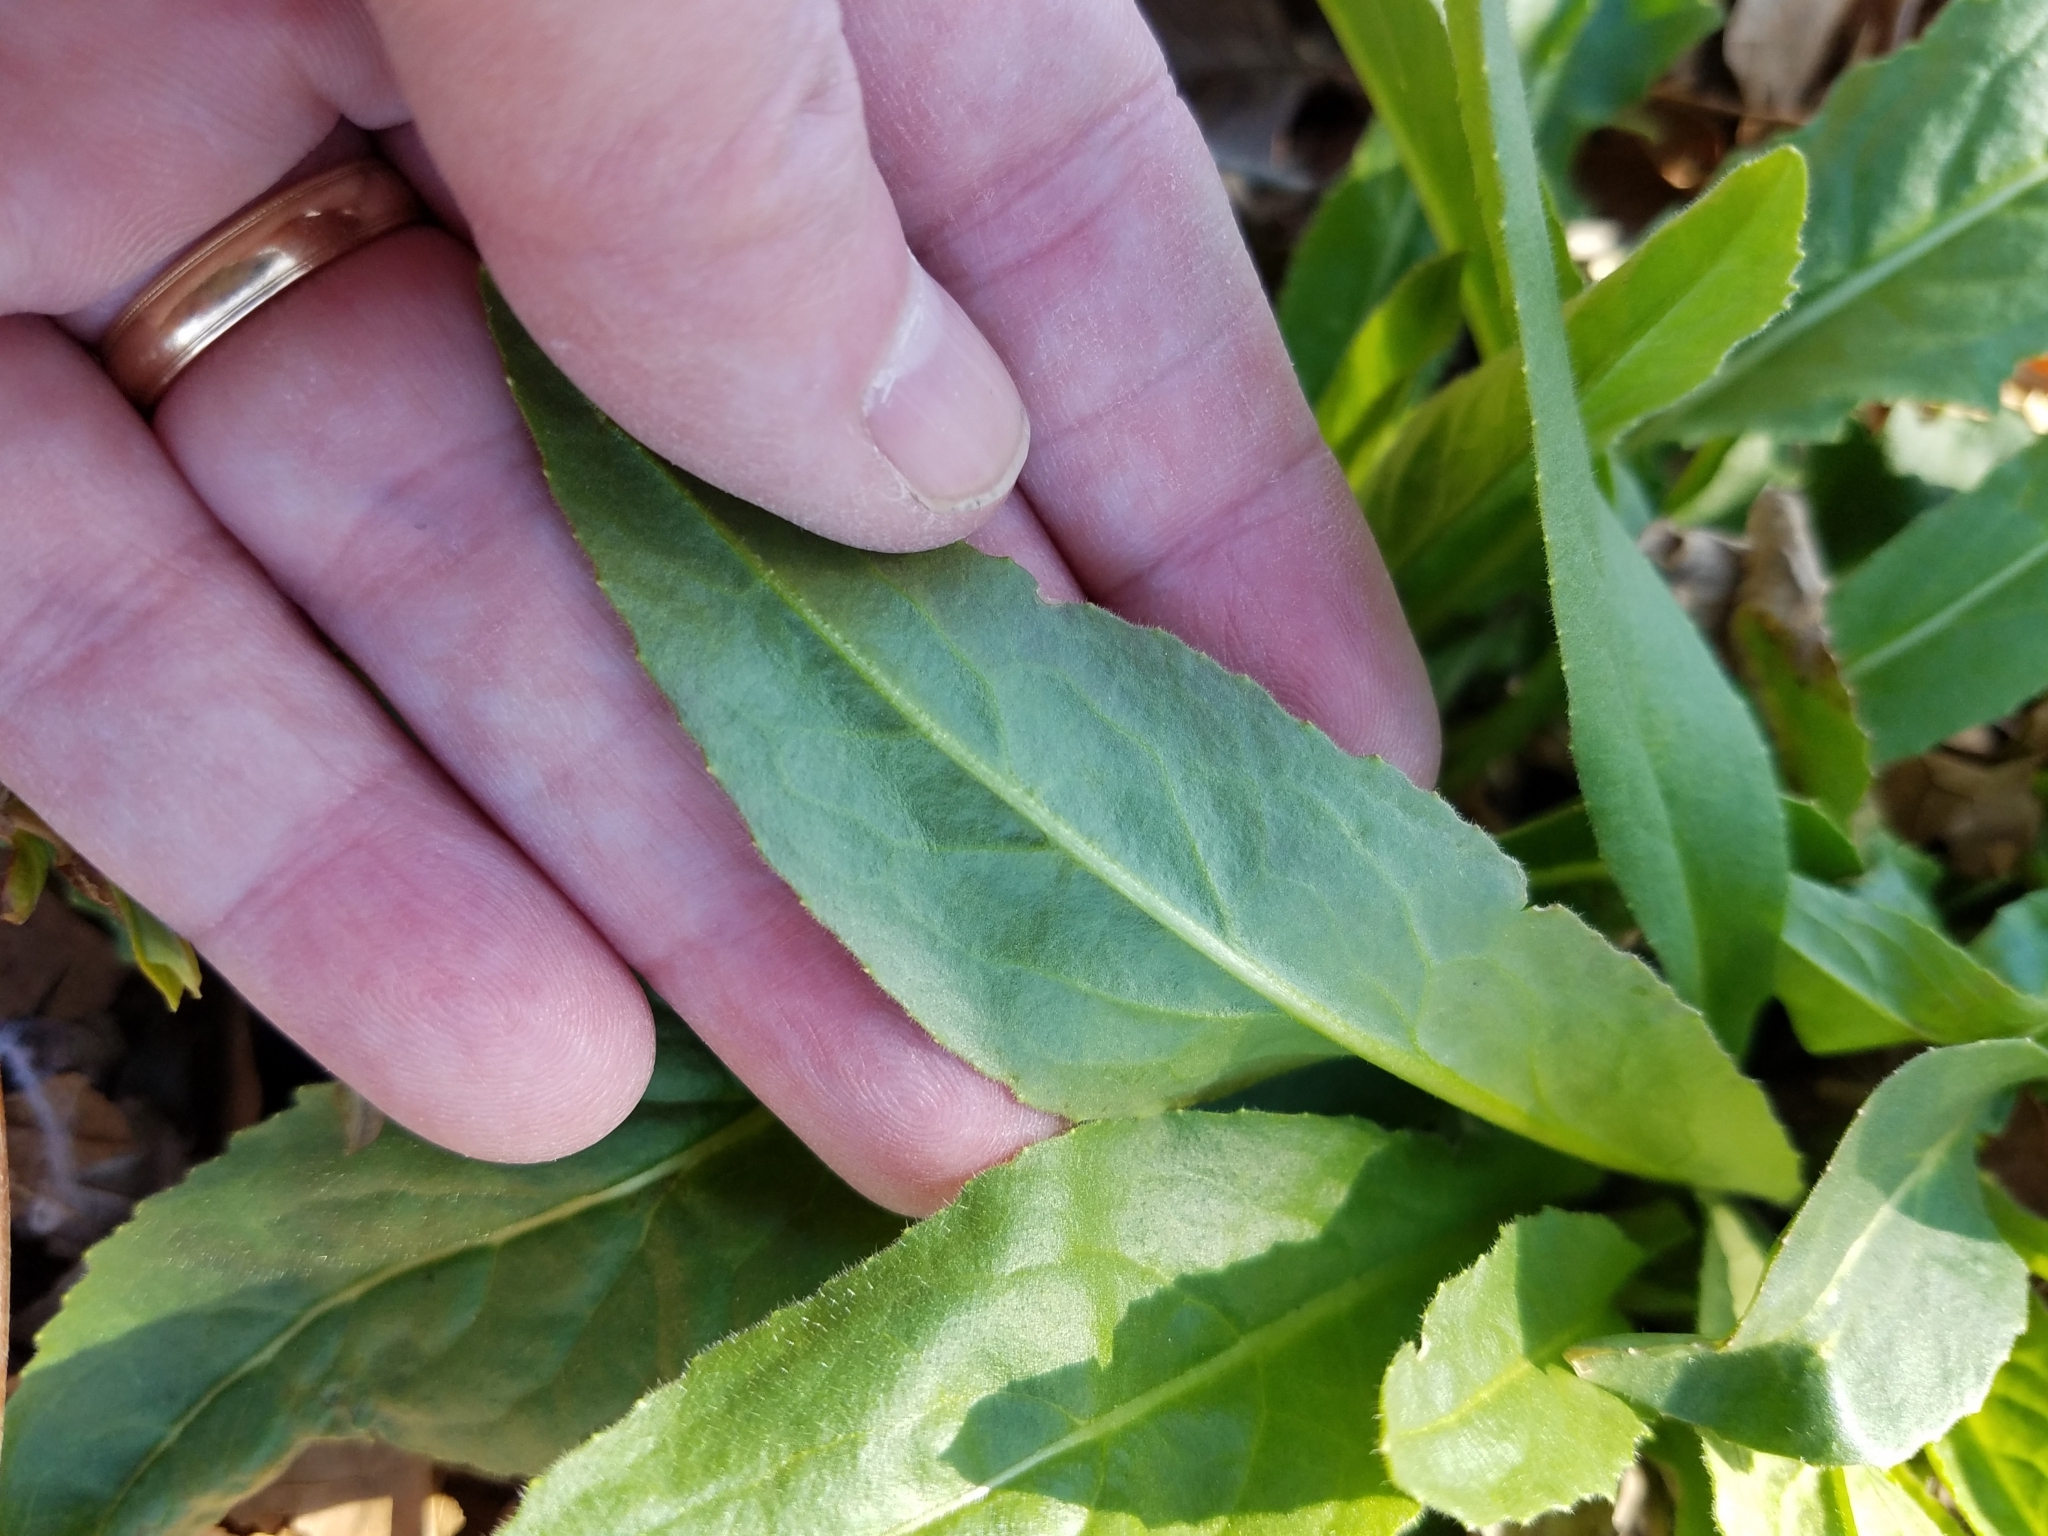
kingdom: Plantae
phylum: Tracheophyta
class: Magnoliopsida
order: Brassicales
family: Brassicaceae
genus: Hesperis
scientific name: Hesperis matronalis
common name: Dame's-violet
